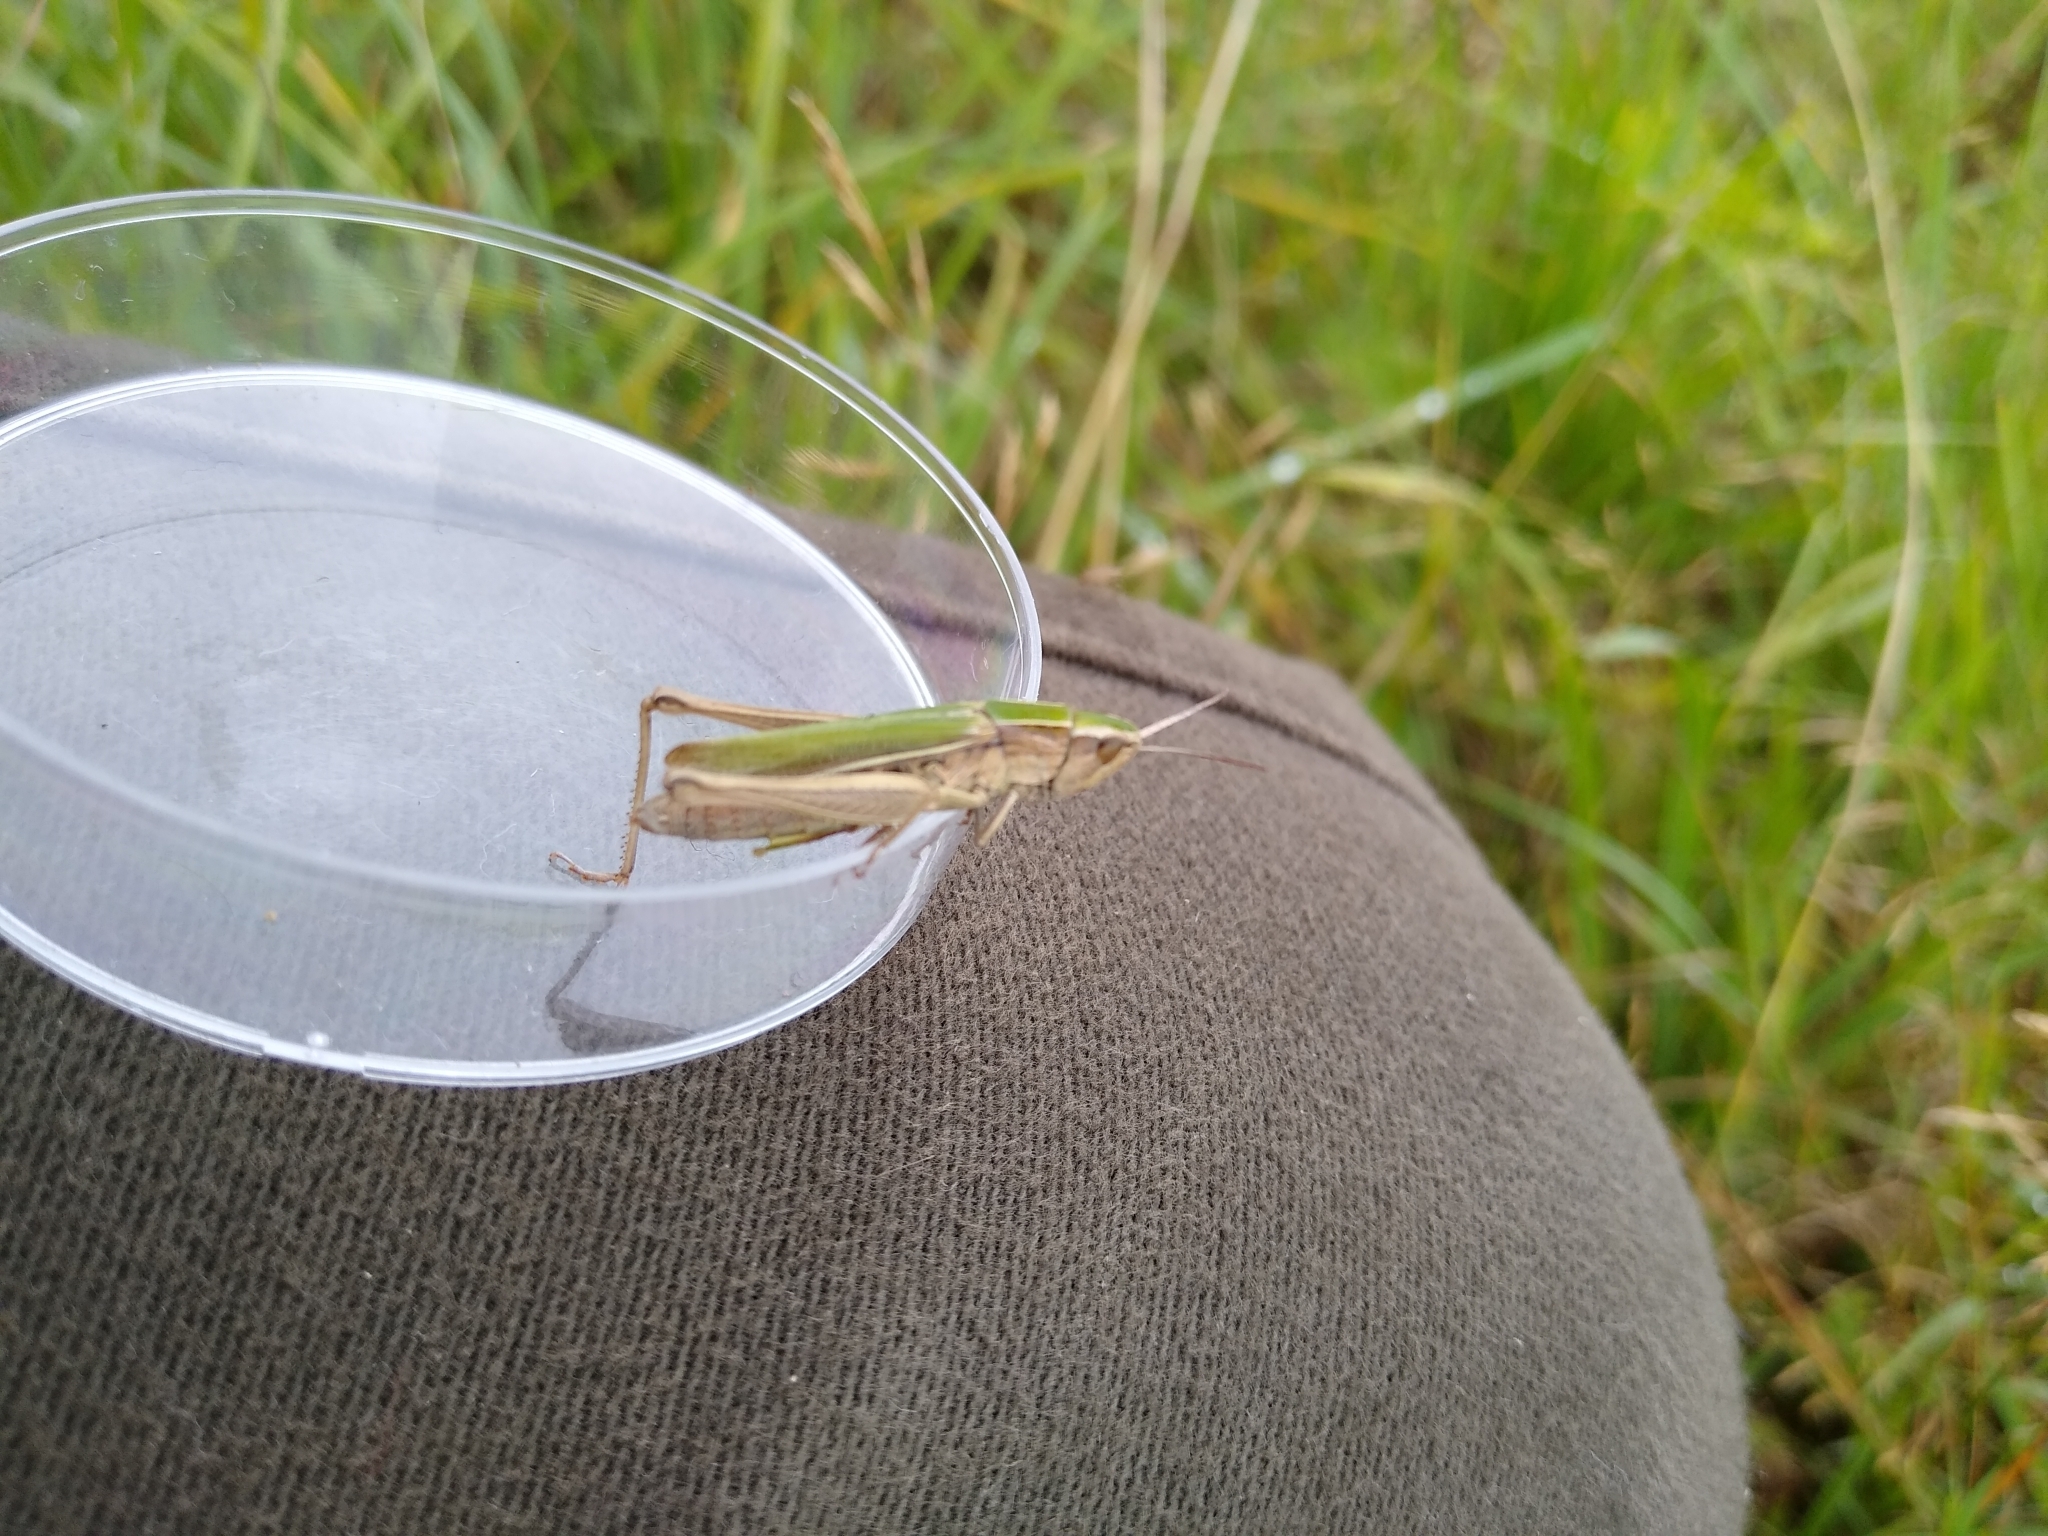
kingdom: Animalia
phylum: Arthropoda
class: Insecta
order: Orthoptera
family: Acrididae
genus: Chorthippus
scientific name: Chorthippus albomarginatus
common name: Lesser marsh grasshopper
